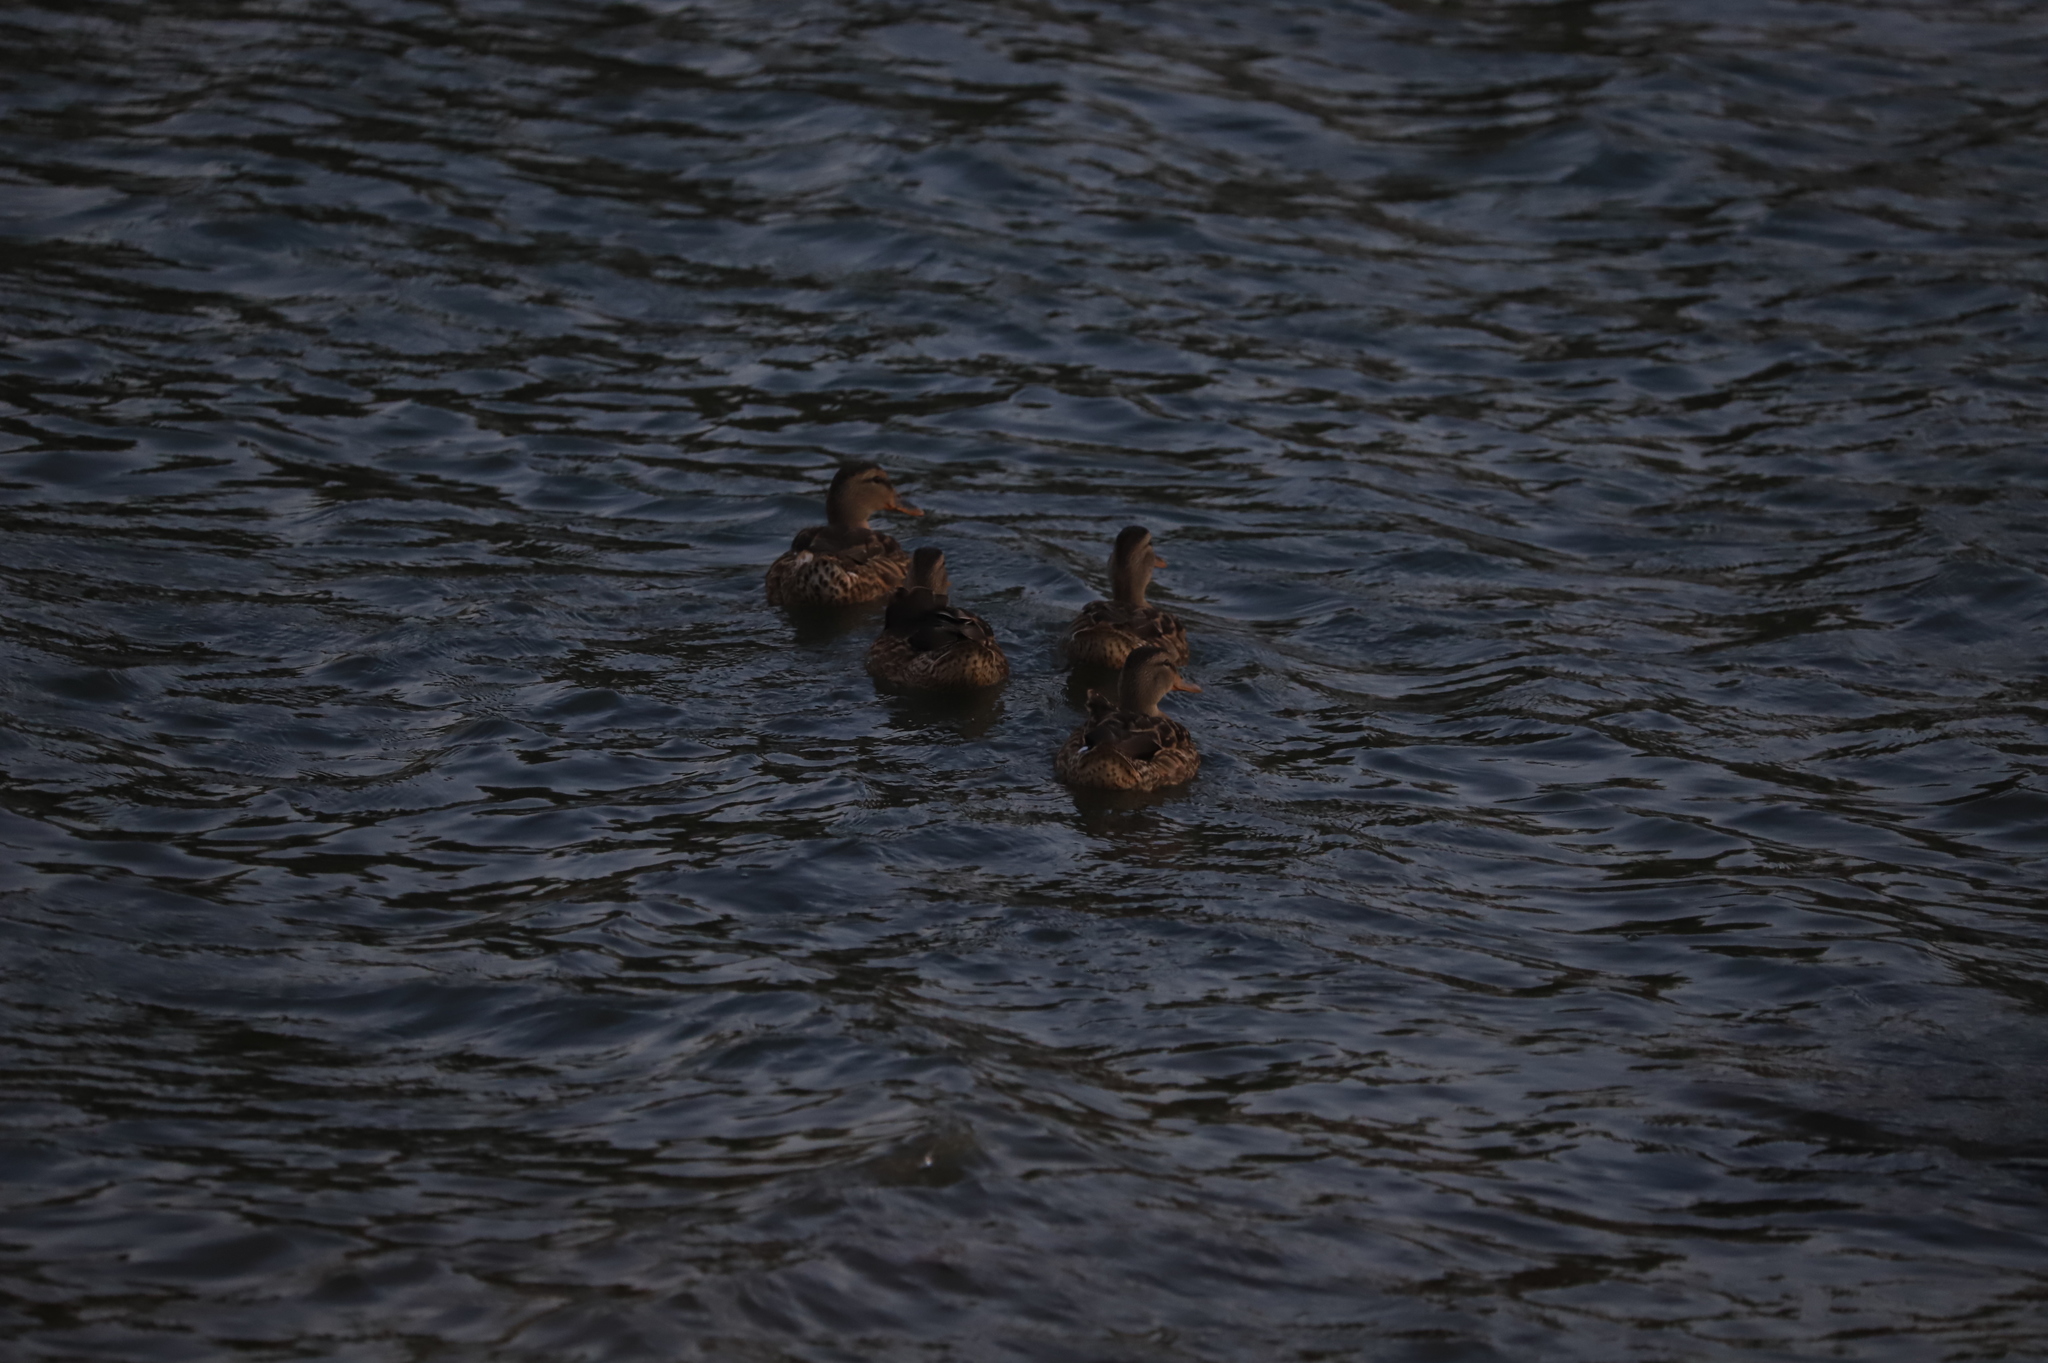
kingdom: Animalia
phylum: Chordata
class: Aves
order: Anseriformes
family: Anatidae
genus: Anas
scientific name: Anas platyrhynchos
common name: Mallard
